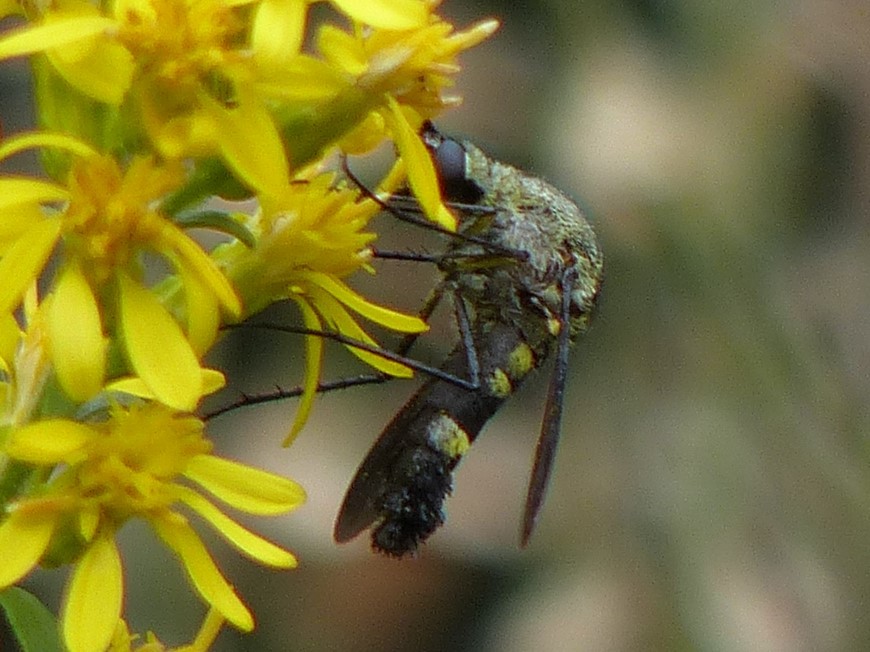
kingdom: Animalia
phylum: Arthropoda
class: Insecta
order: Diptera
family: Bombyliidae
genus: Lepidophora
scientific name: Lepidophora lepidocera
